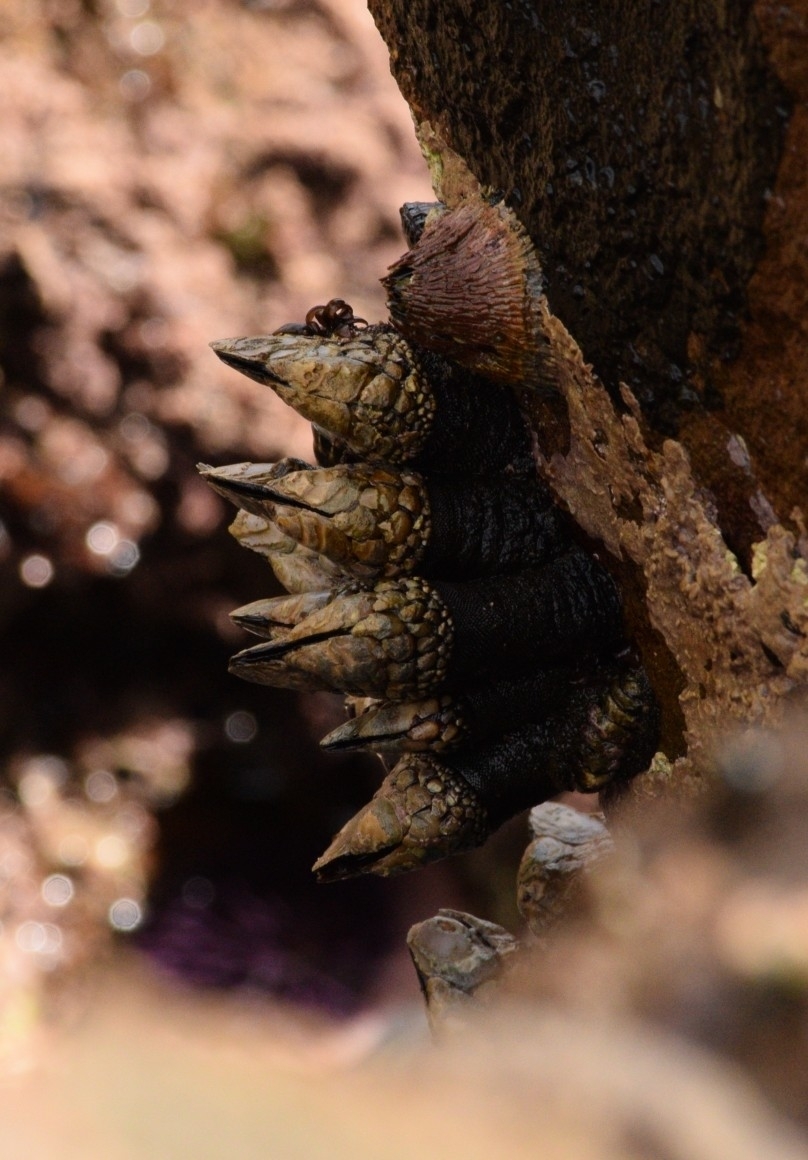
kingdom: Animalia
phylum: Arthropoda
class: Maxillopoda
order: Pedunculata
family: Pollicipedidae
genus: Pollicipes
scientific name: Pollicipes polymerus
